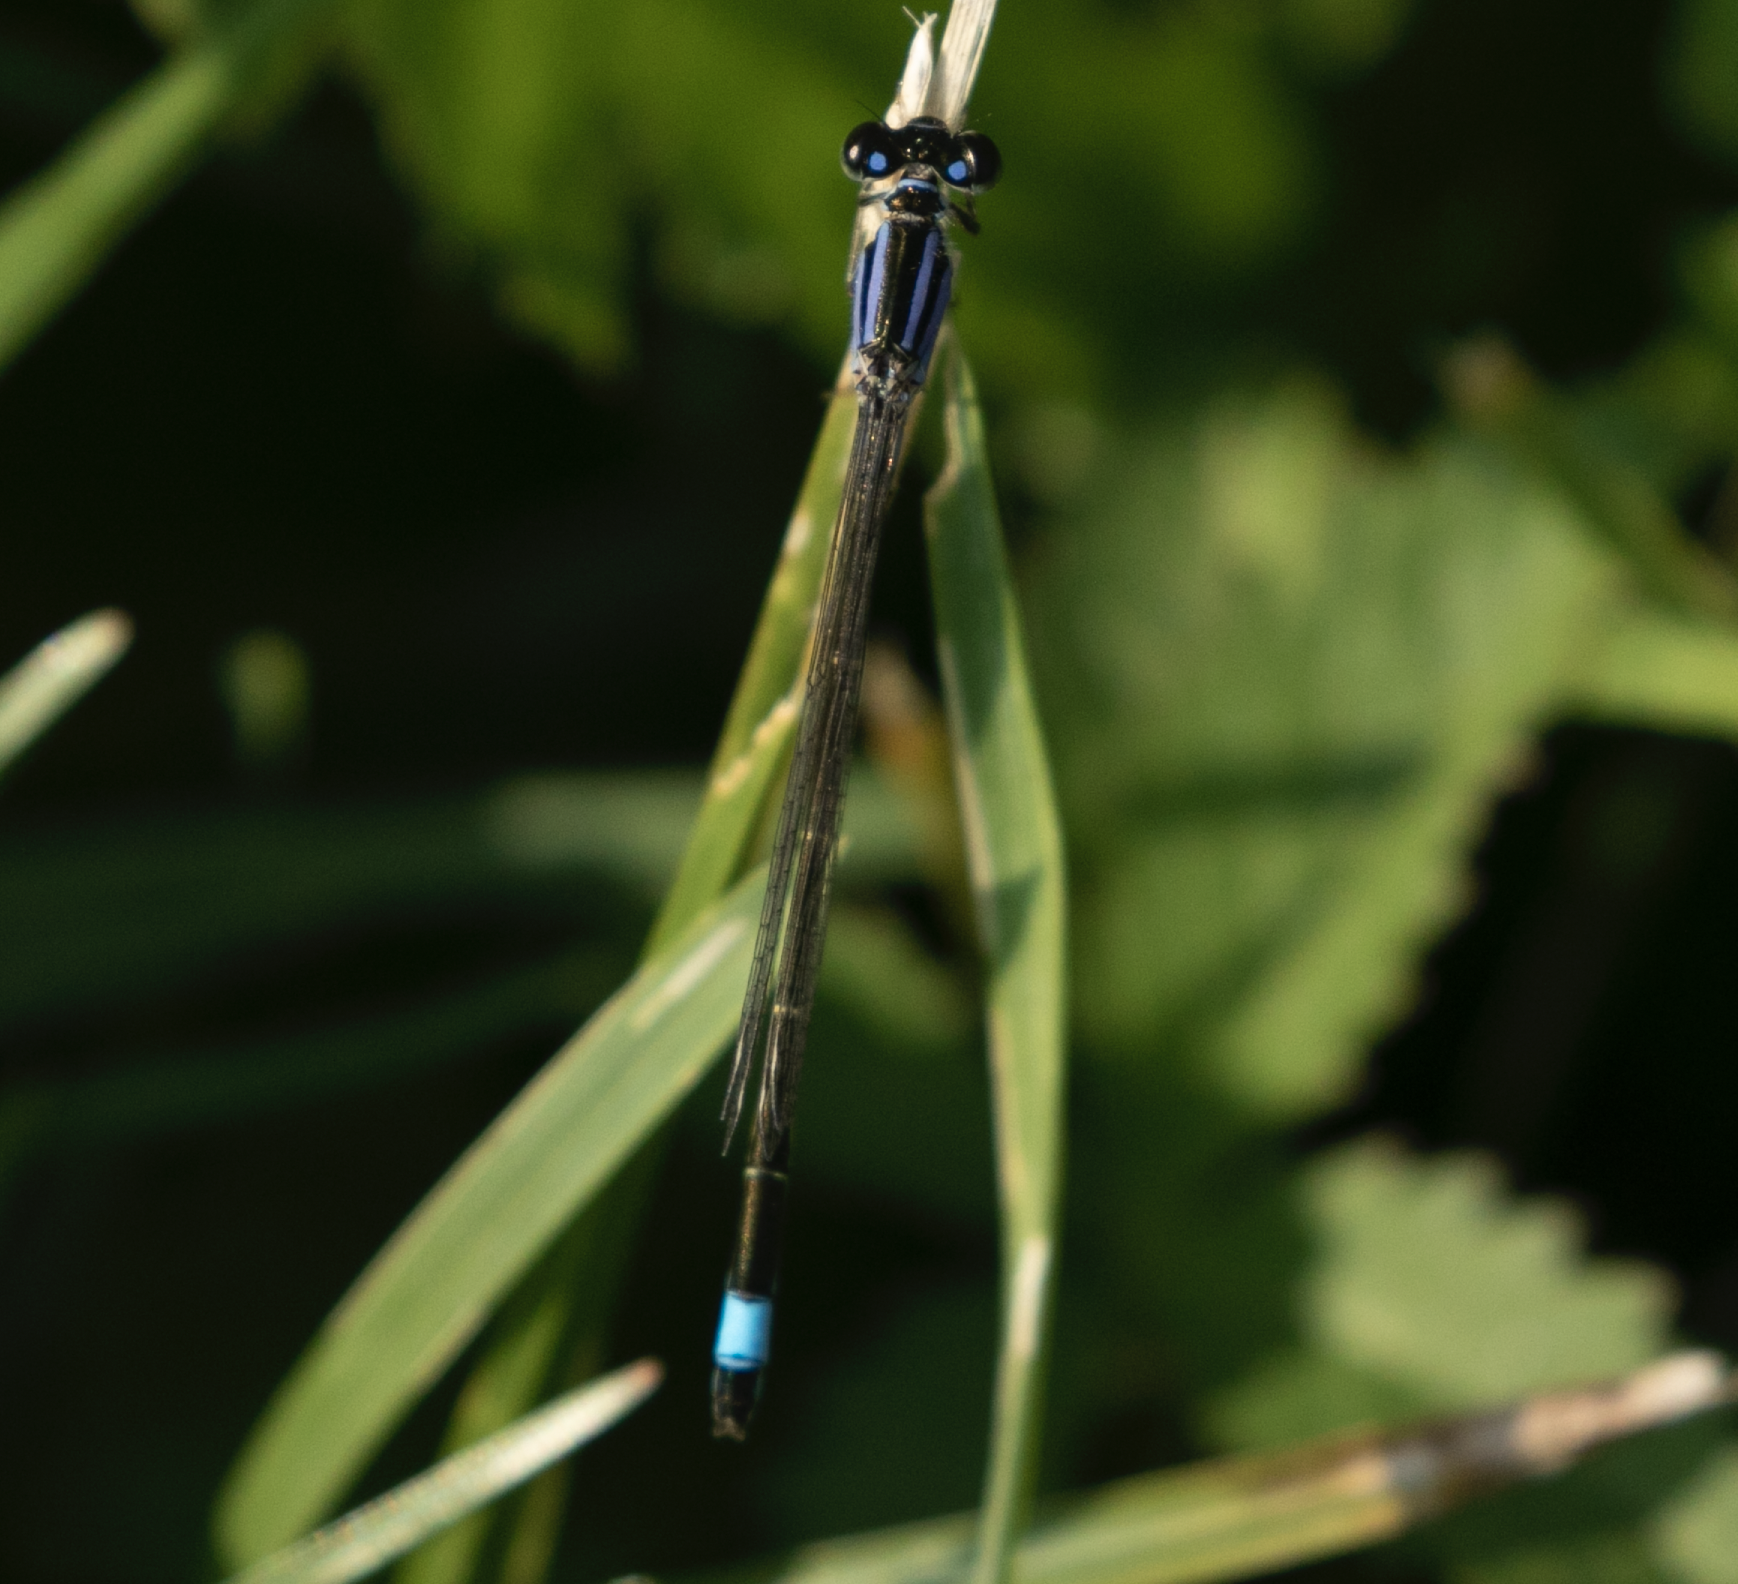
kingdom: Animalia
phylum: Arthropoda
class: Insecta
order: Odonata
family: Coenagrionidae
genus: Ischnura
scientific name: Ischnura elegans
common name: Blue-tailed damselfly
